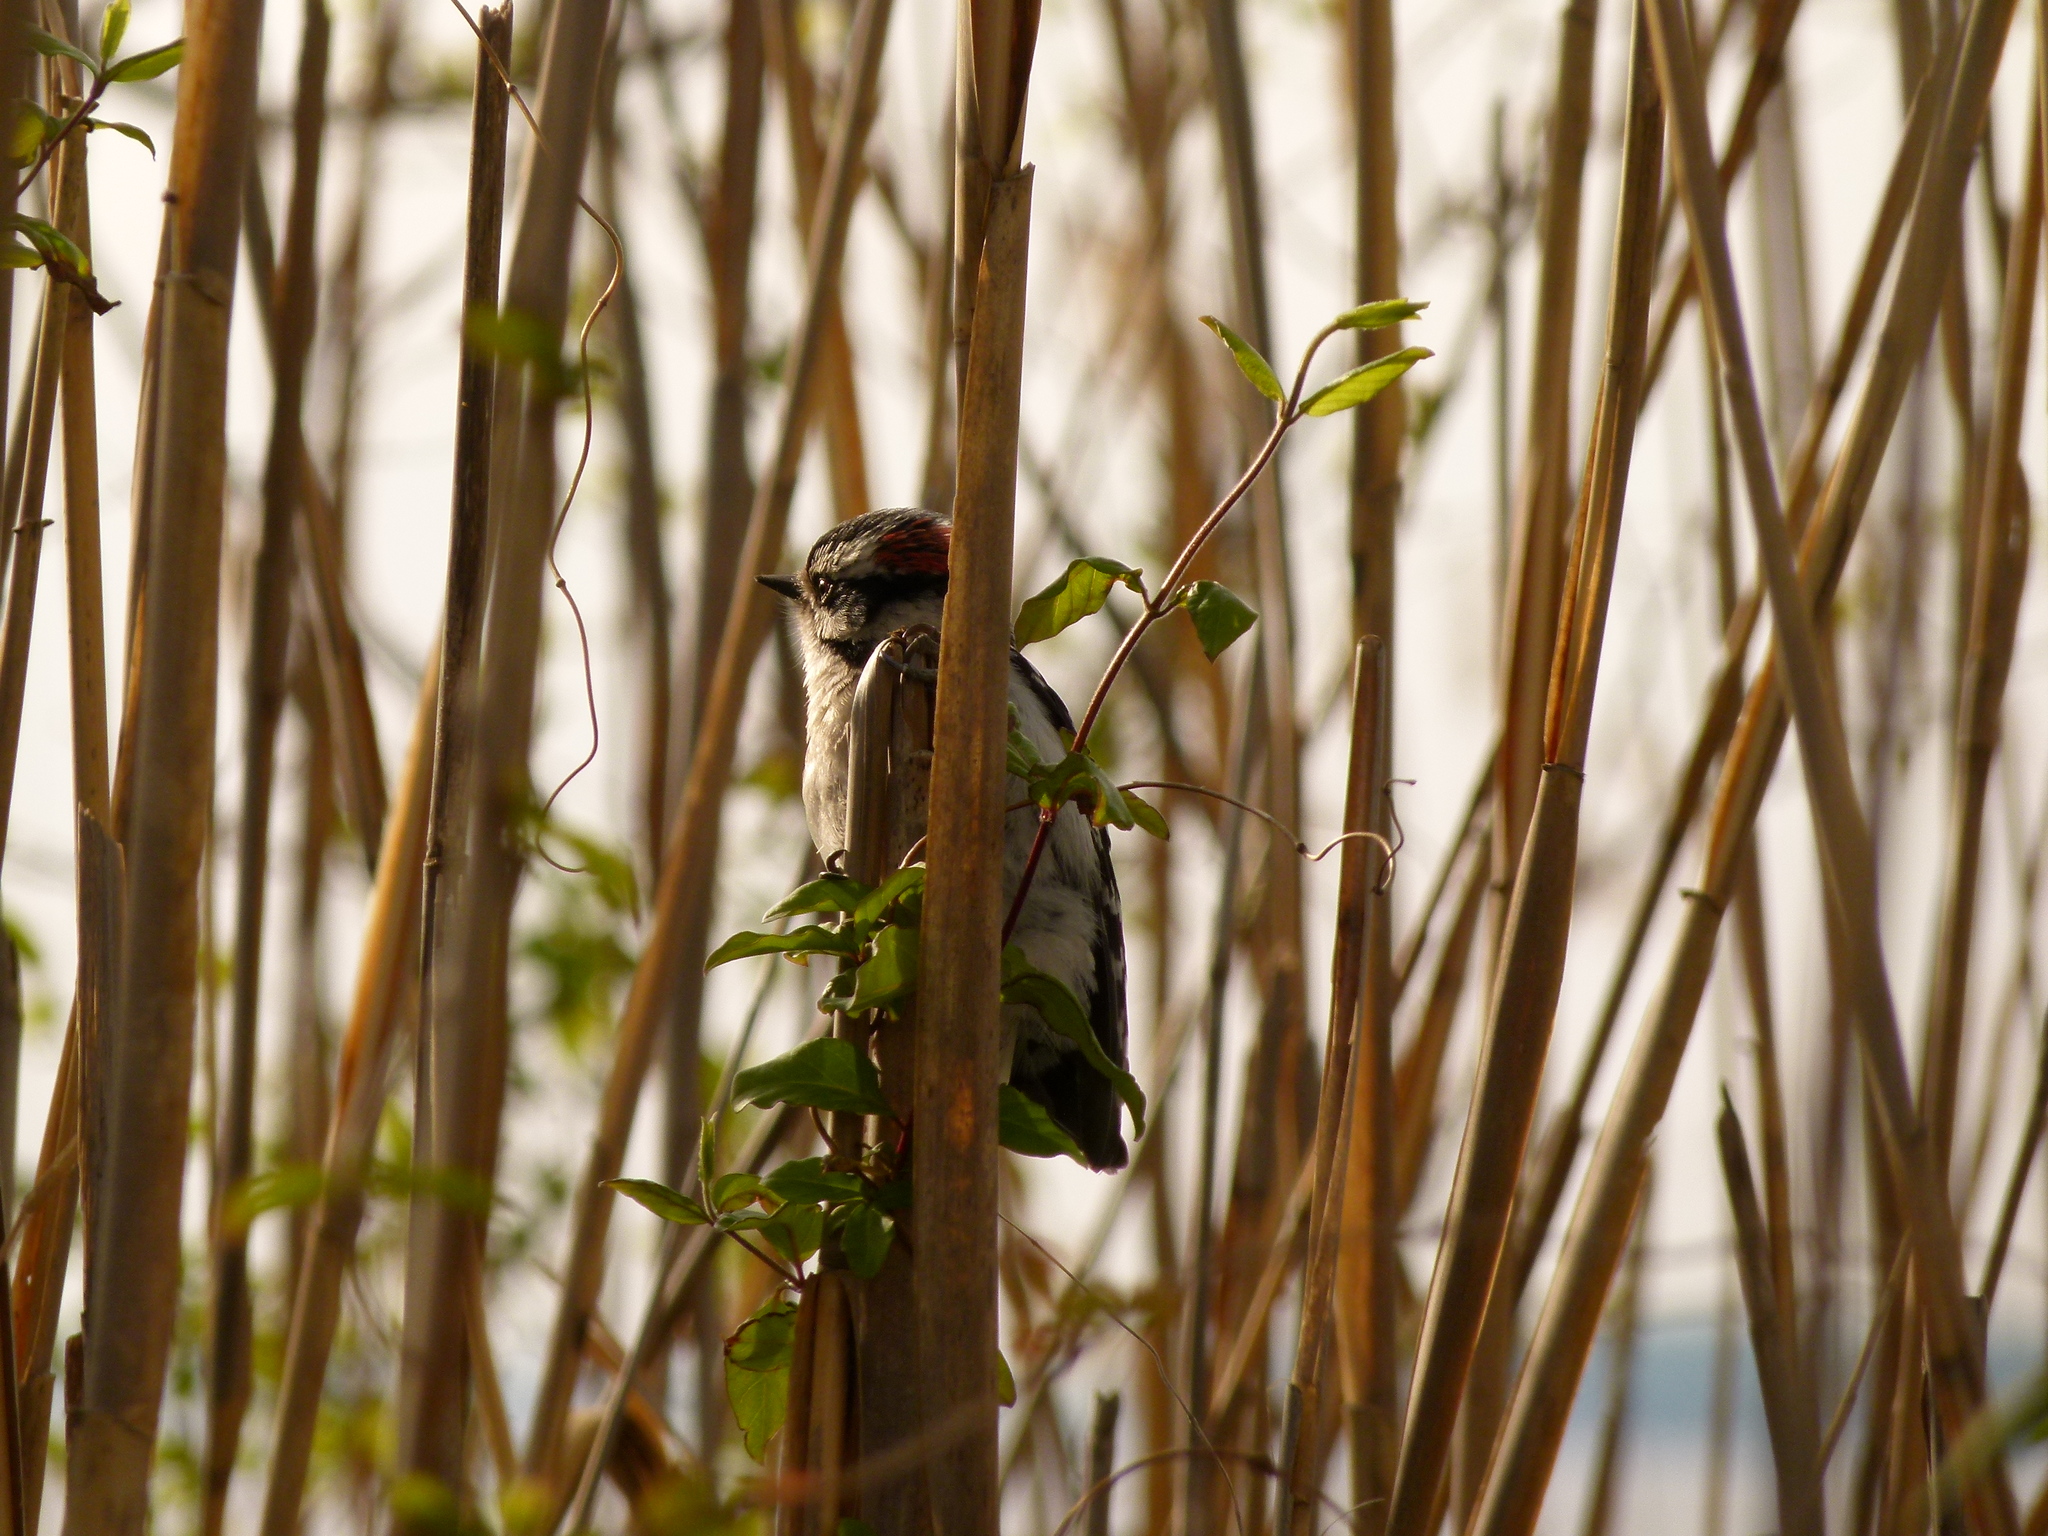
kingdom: Animalia
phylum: Chordata
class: Aves
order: Piciformes
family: Picidae
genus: Dryobates
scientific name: Dryobates pubescens
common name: Downy woodpecker
